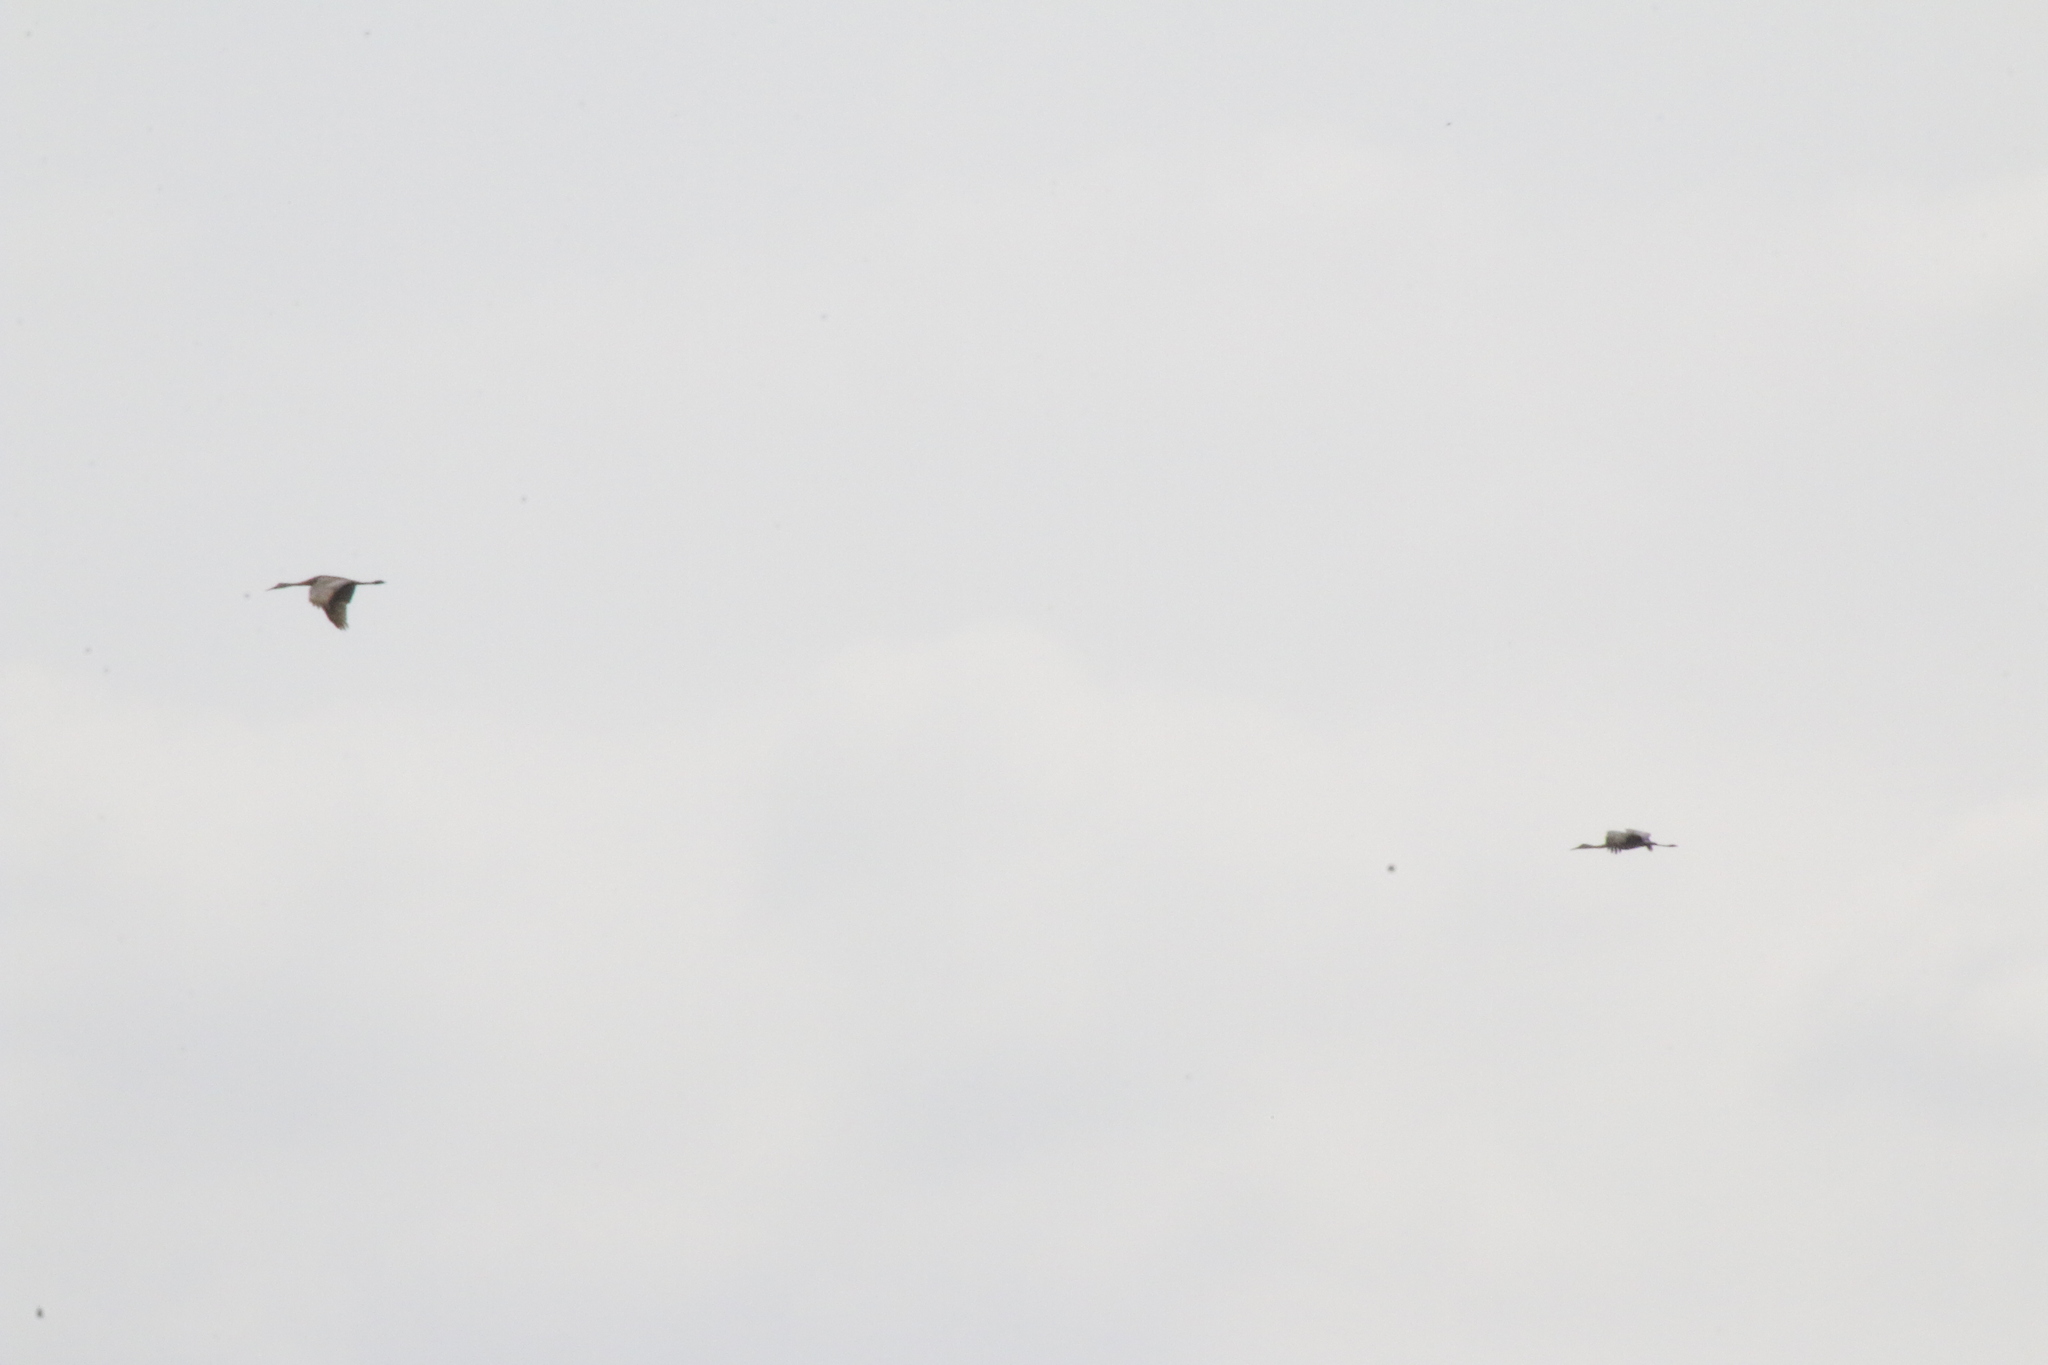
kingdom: Animalia
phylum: Chordata
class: Aves
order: Gruiformes
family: Gruidae
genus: Grus
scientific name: Grus canadensis
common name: Sandhill crane
